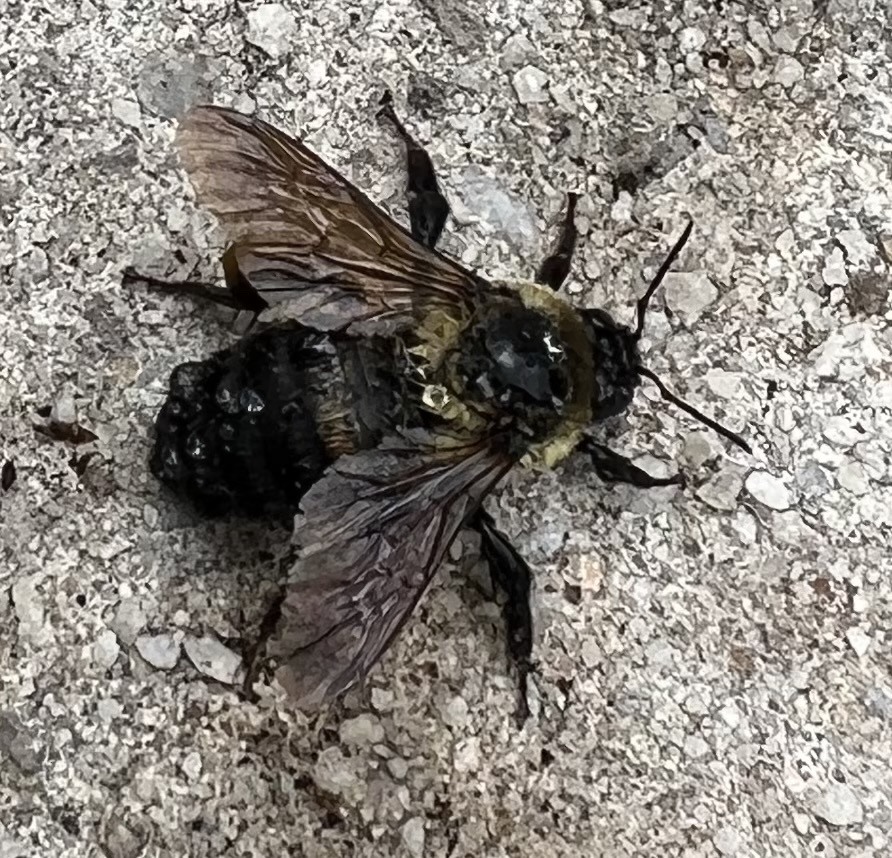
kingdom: Animalia
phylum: Arthropoda
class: Insecta
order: Hymenoptera
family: Apidae
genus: Bombus
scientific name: Bombus griseocollis
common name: Brown-belted bumble bee
